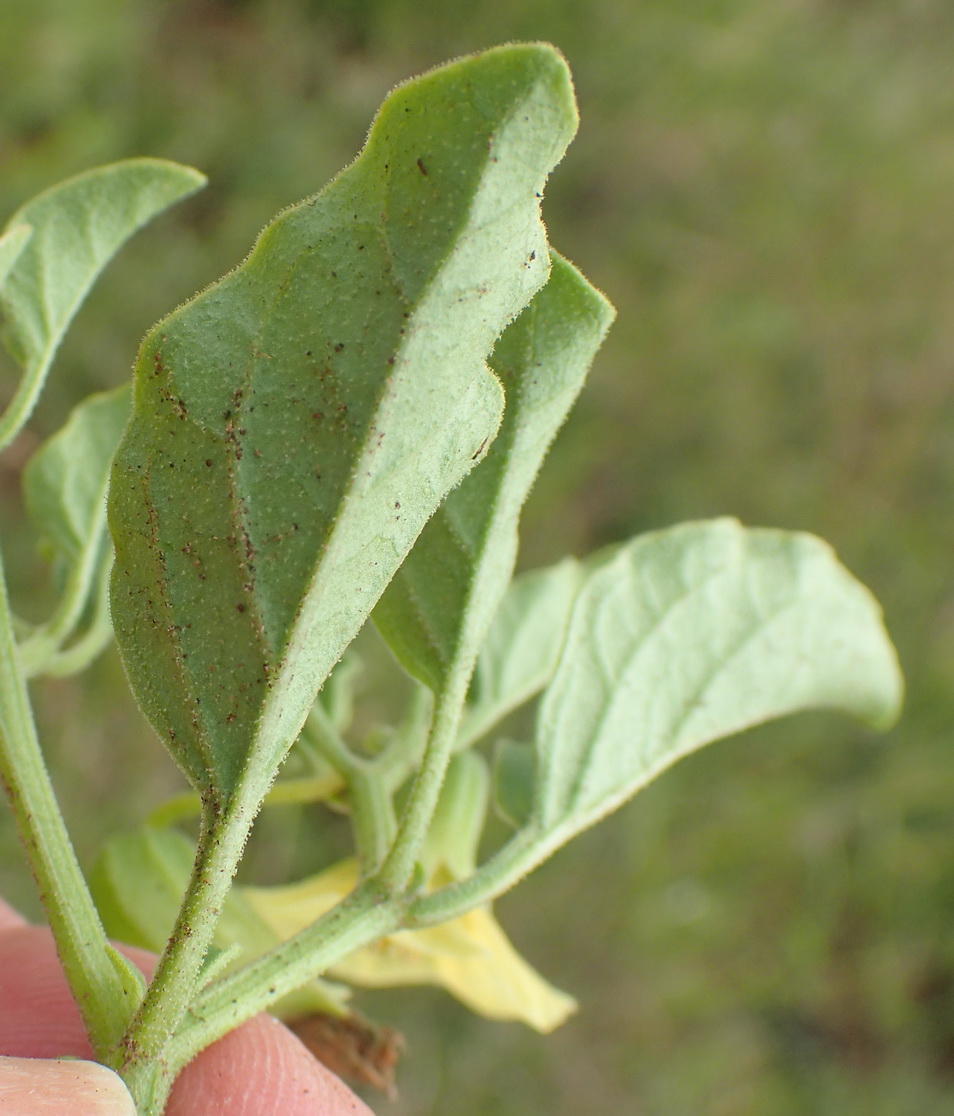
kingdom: Plantae
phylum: Tracheophyta
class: Magnoliopsida
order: Solanales
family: Solanaceae
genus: Physalis
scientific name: Physalis viscosa
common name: Stellate ground-cherry
